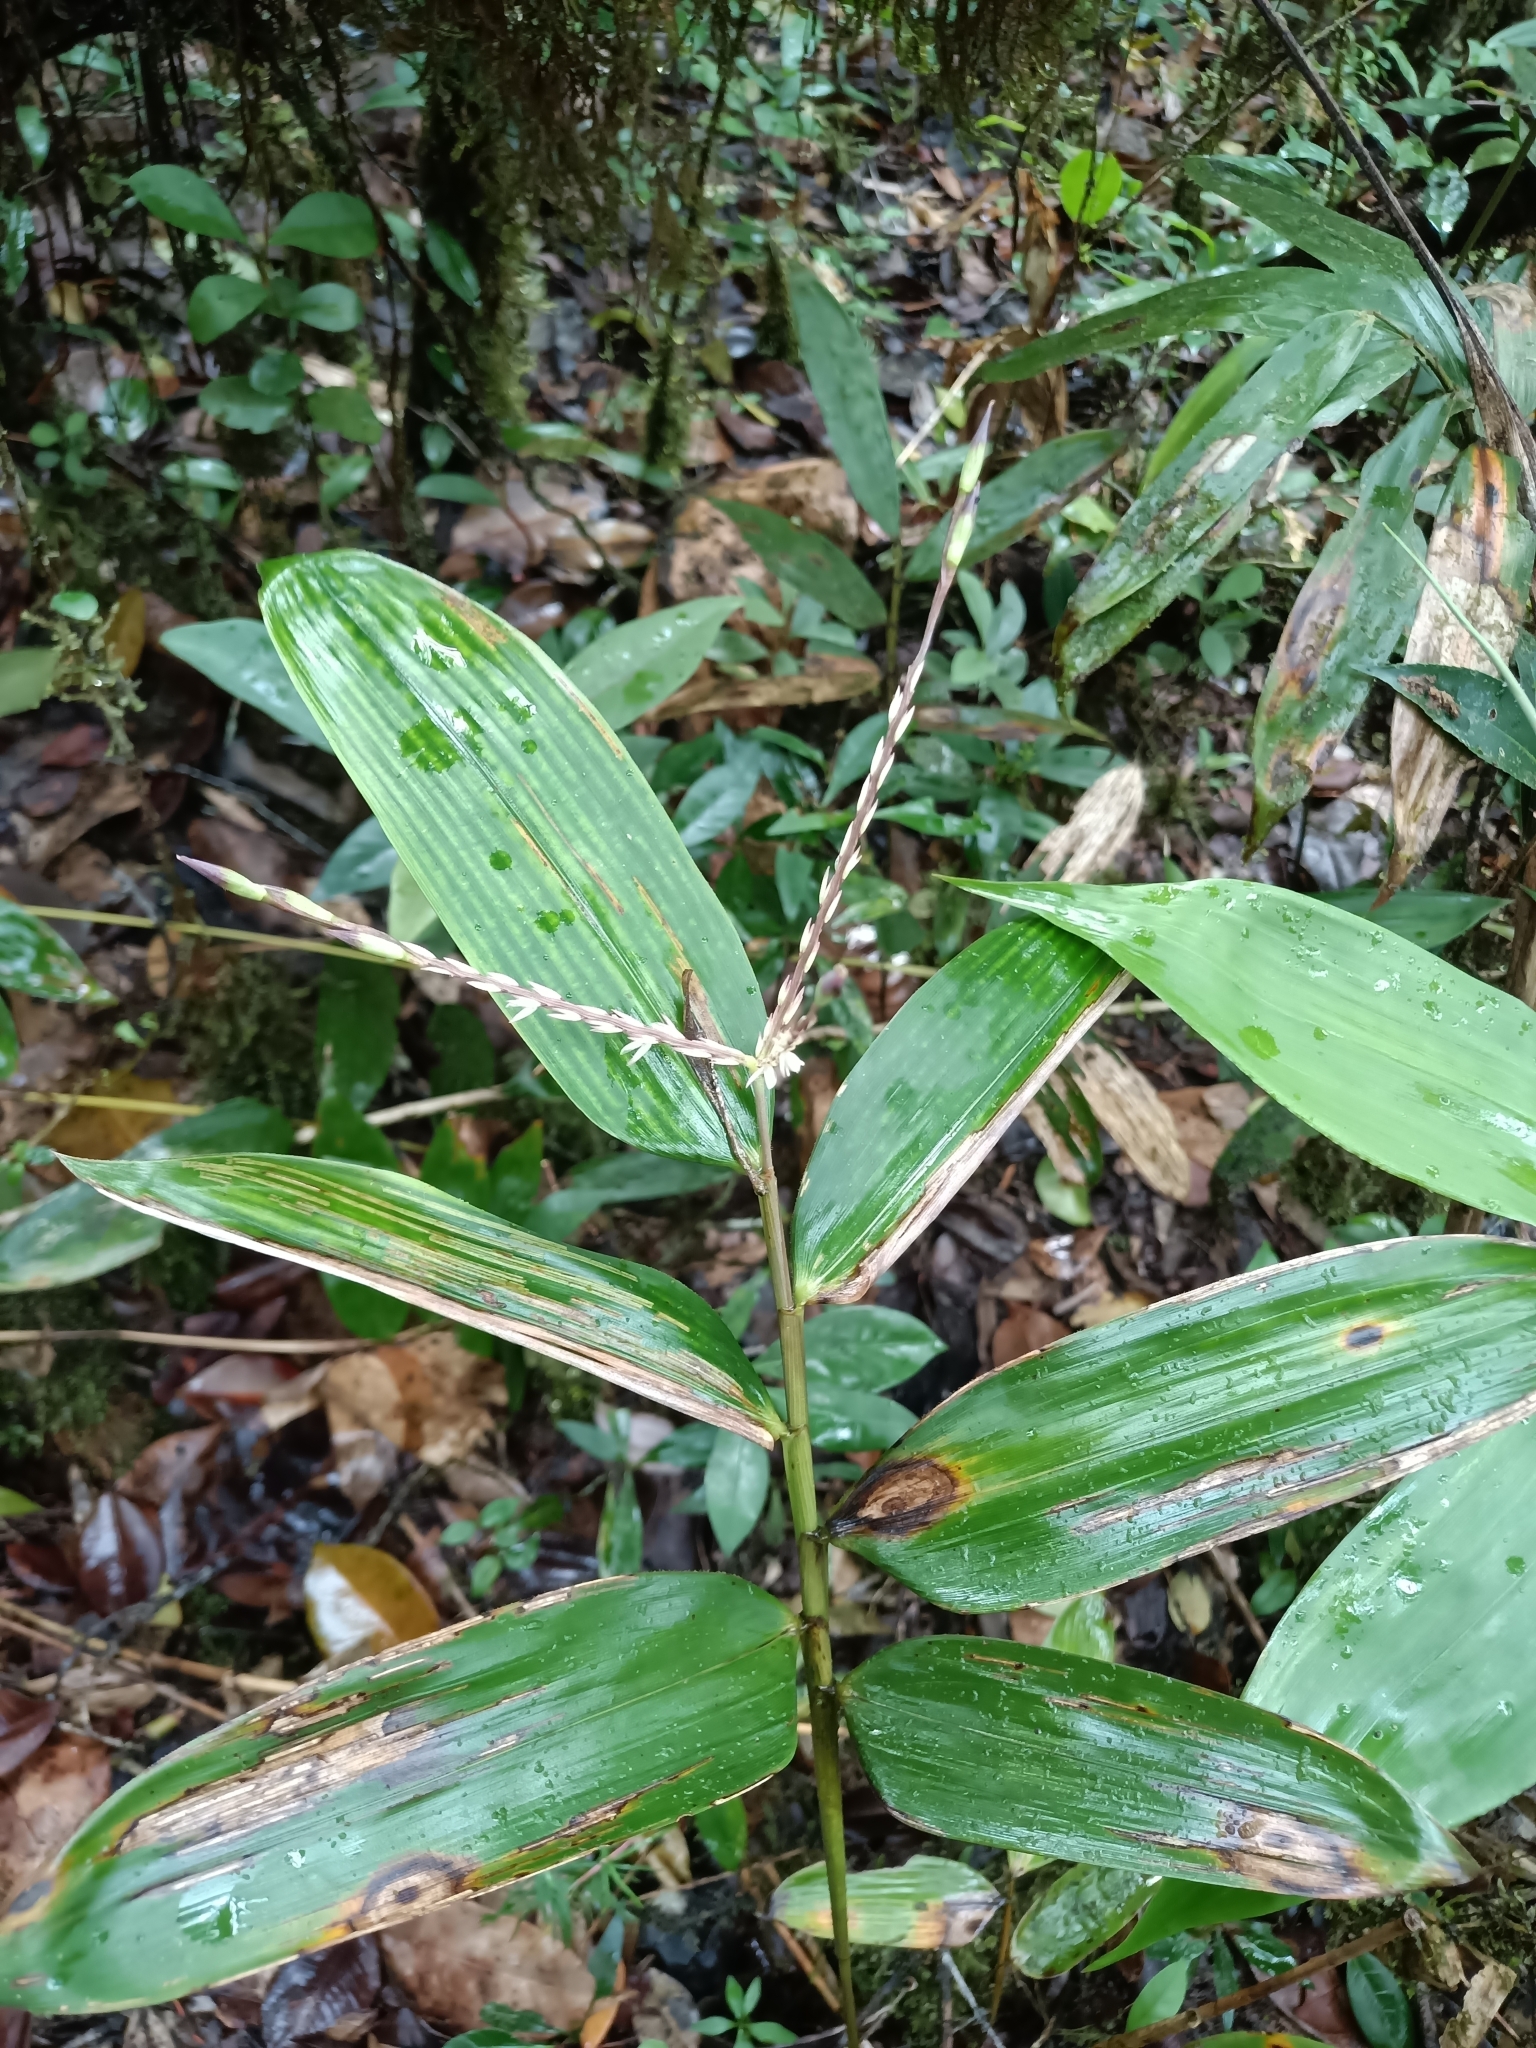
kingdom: Plantae
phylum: Tracheophyta
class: Liliopsida
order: Poales
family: Poaceae
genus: Olyra
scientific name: Olyra obliquifolia
